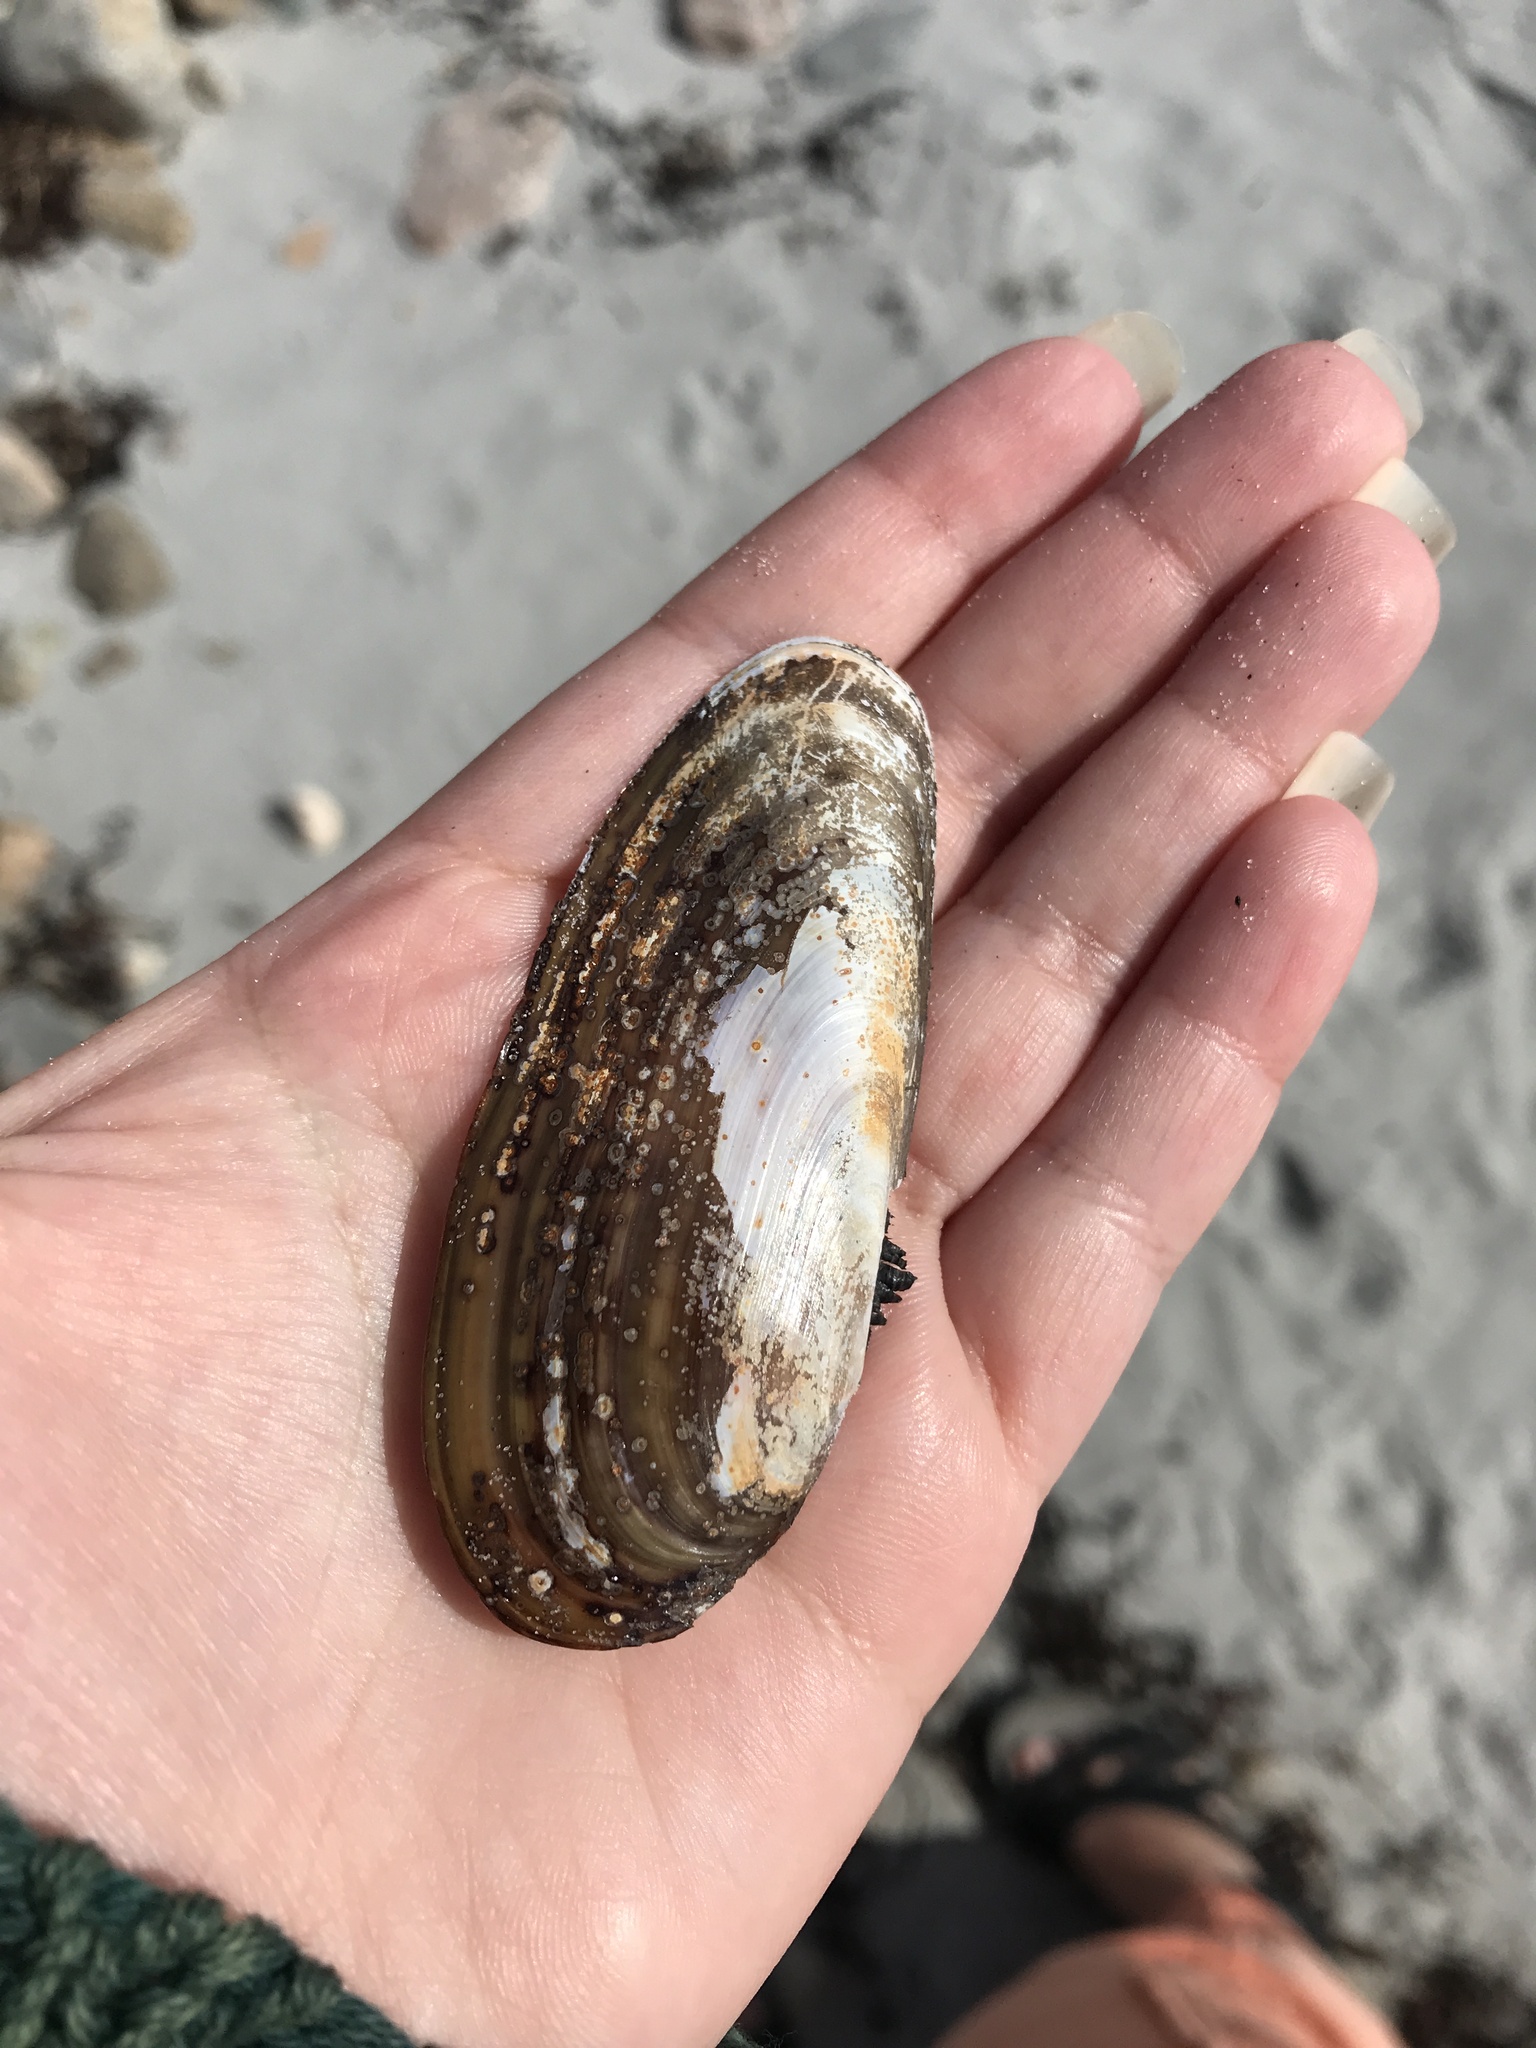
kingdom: Animalia
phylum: Mollusca
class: Bivalvia
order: Adapedonta
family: Pharidae
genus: Siliqua
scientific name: Siliqua costata
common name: Atlantic razor
